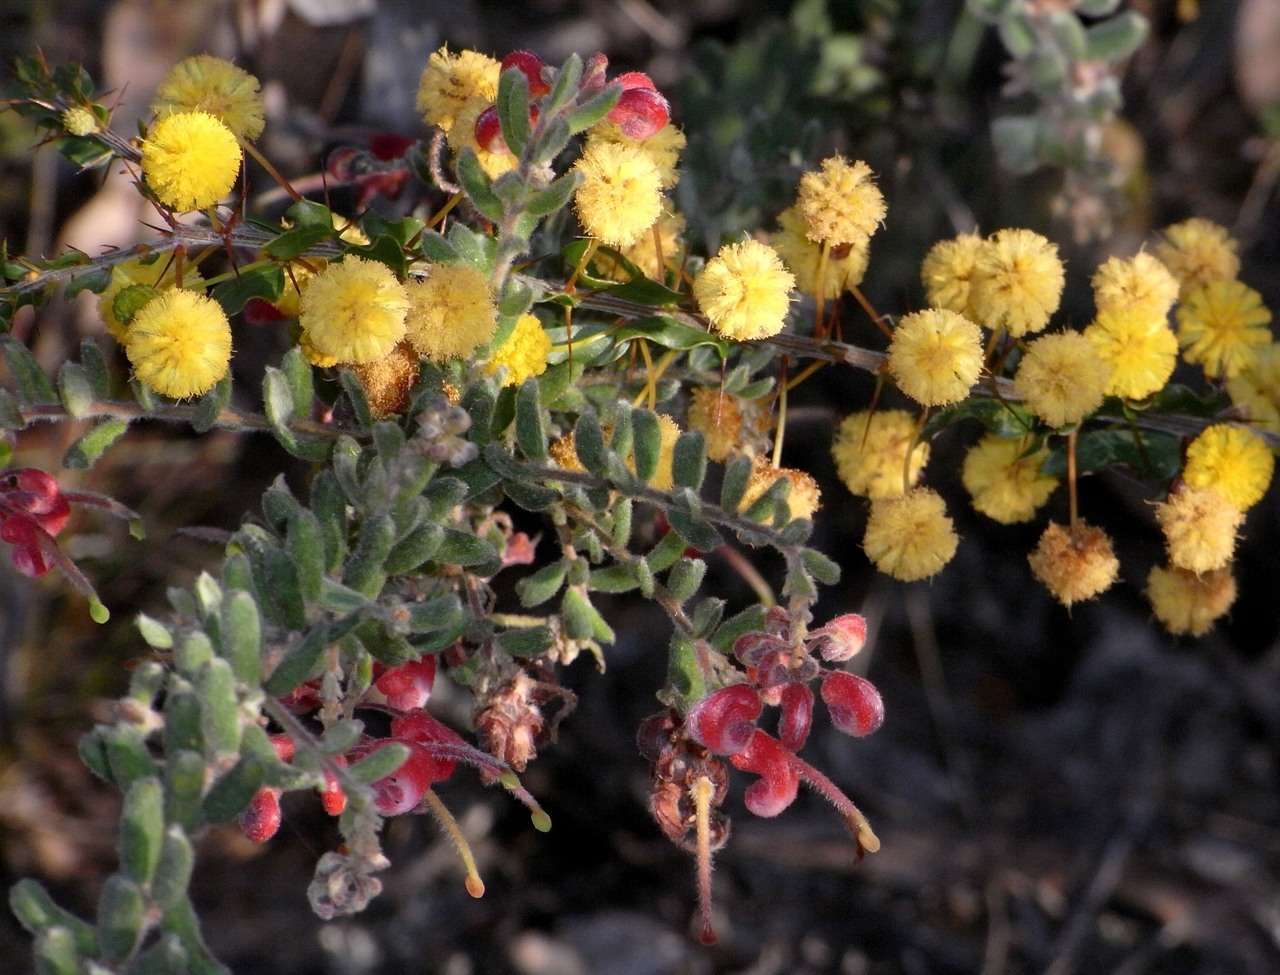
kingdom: Plantae
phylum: Tracheophyta
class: Magnoliopsida
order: Proteales
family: Proteaceae
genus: Grevillea
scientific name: Grevillea alpina
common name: Catclaws grevillea
